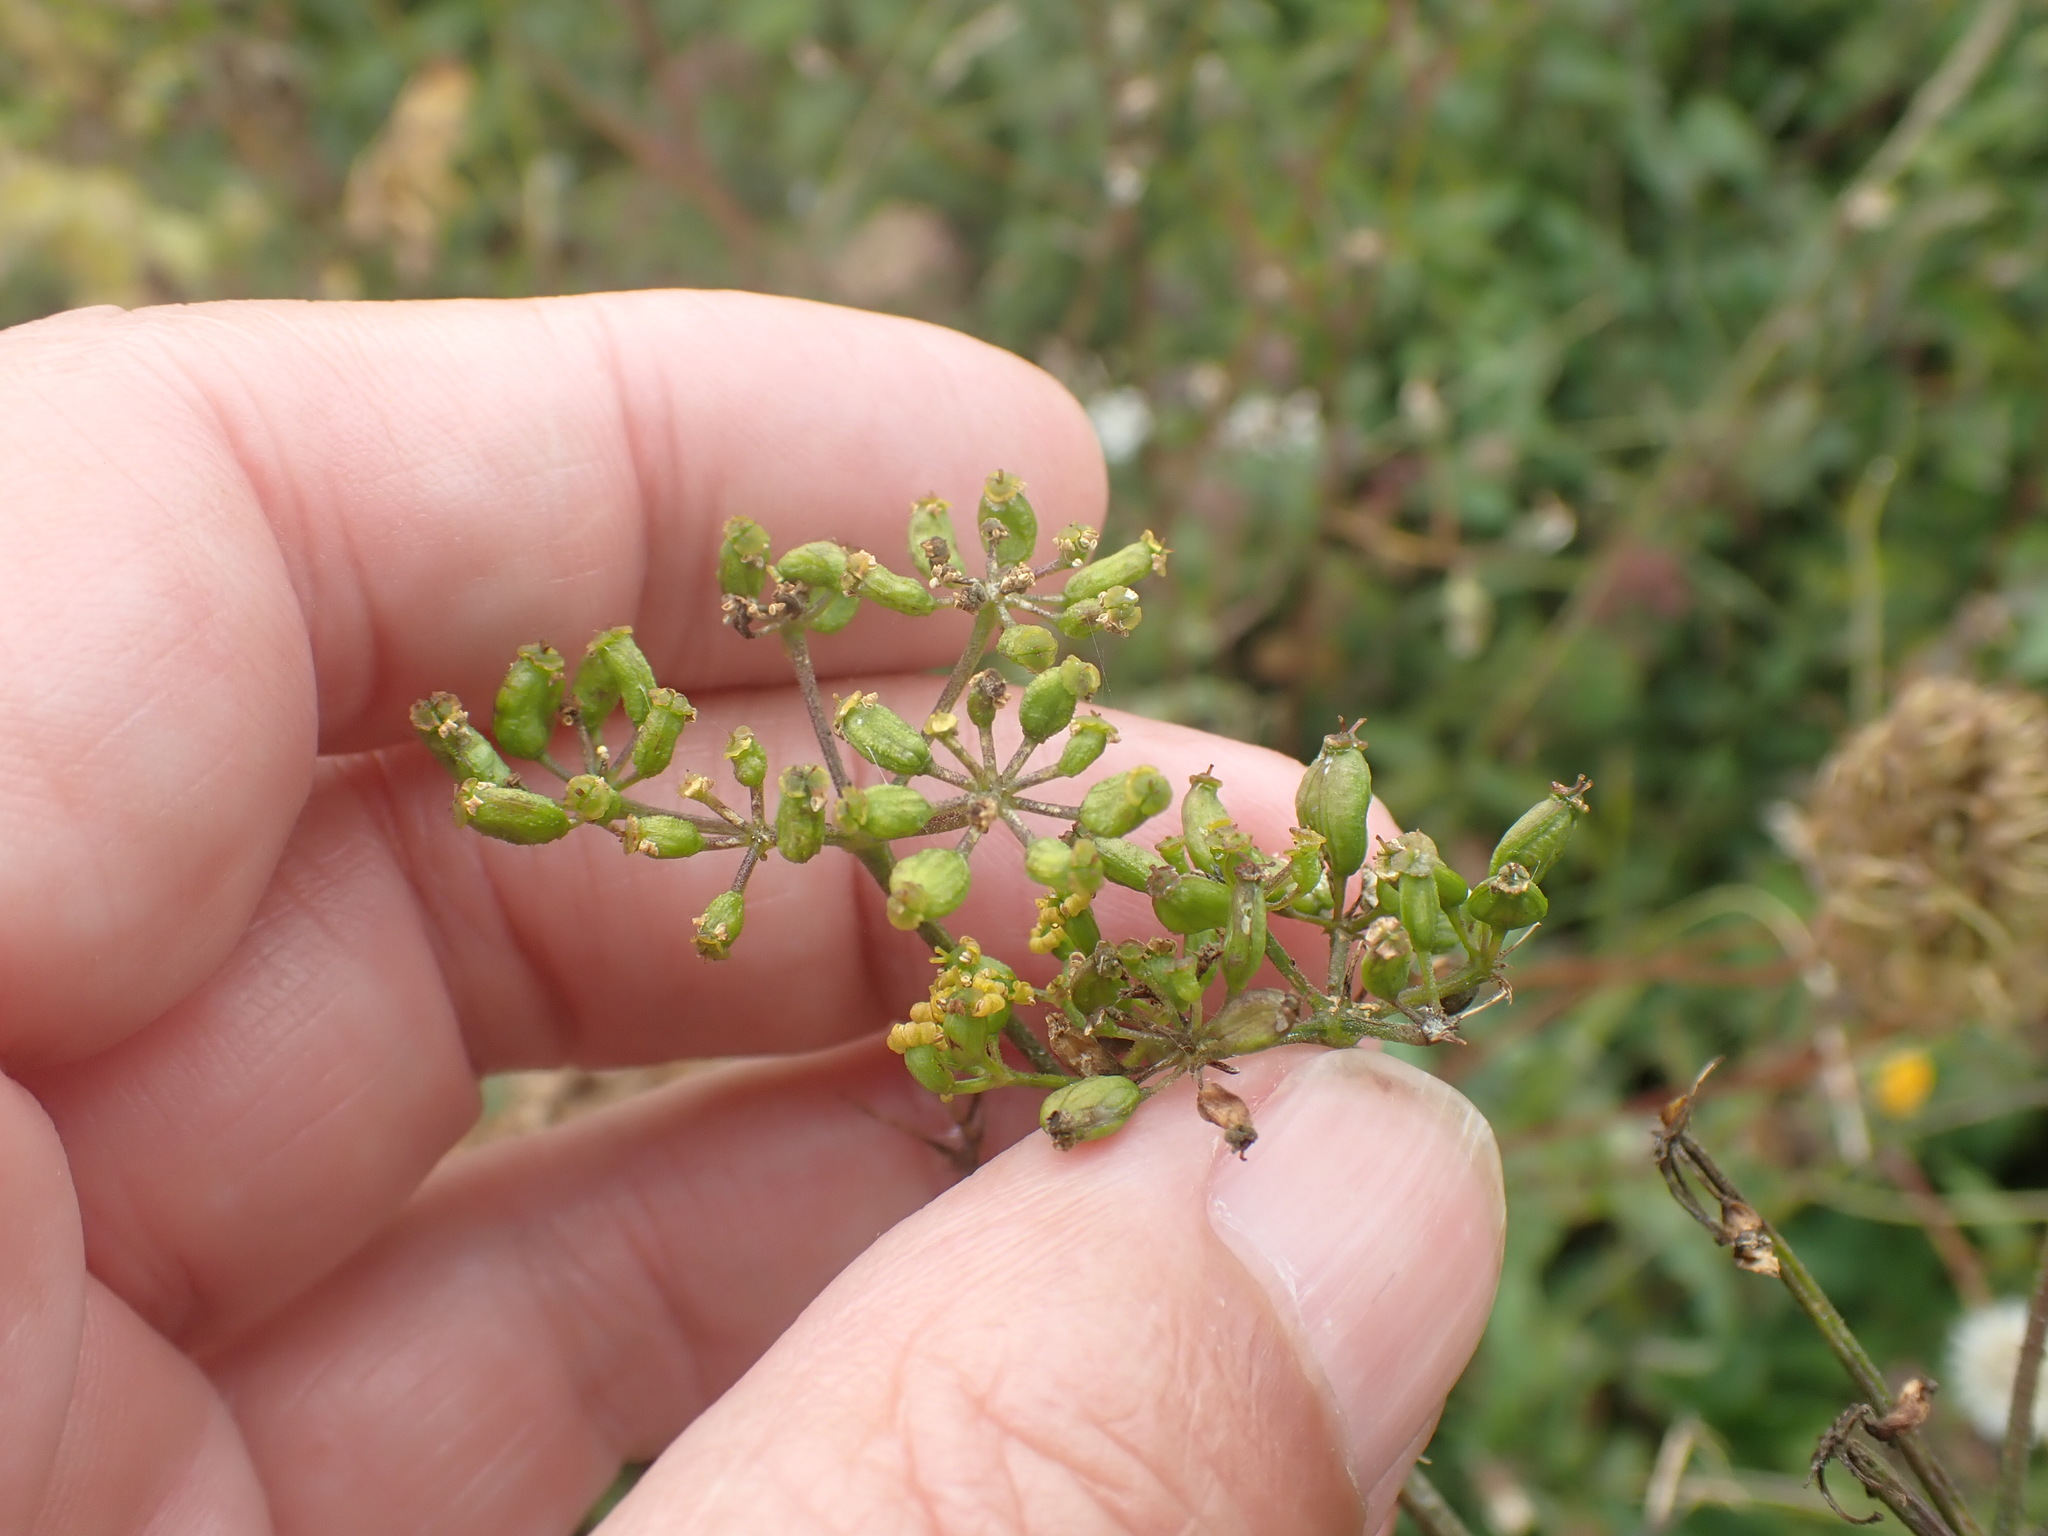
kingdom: Plantae
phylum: Tracheophyta
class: Magnoliopsida
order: Apiales
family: Apiaceae
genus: Pastinaca
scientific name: Pastinaca sativa
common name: Wild parsnip
